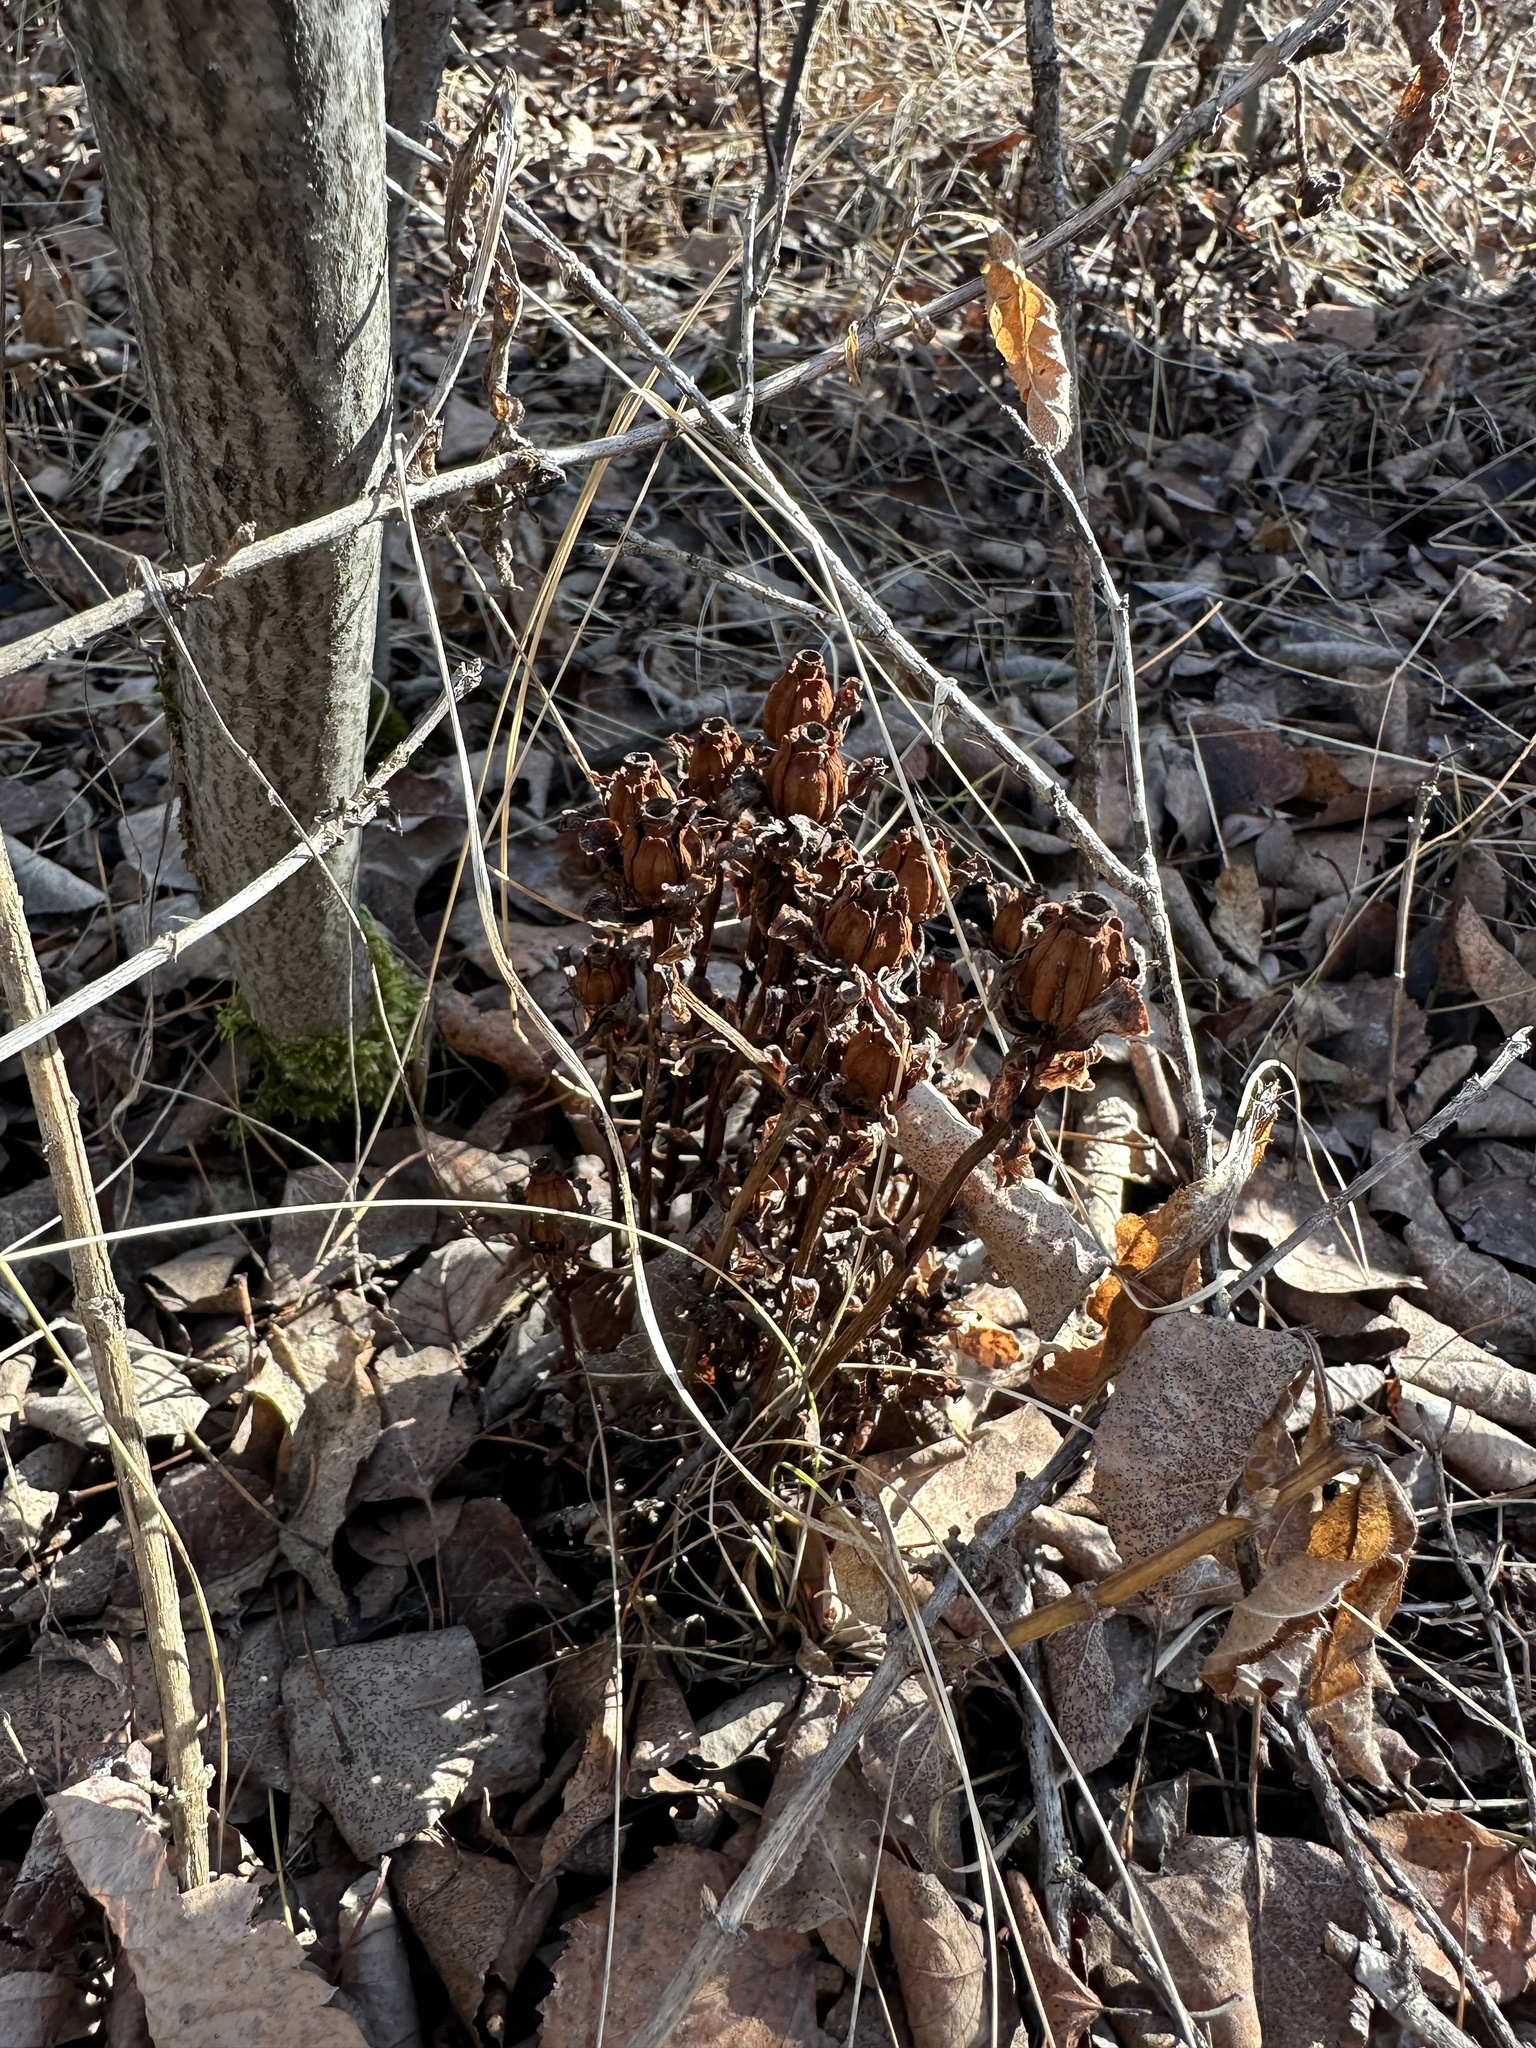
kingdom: Plantae
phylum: Tracheophyta
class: Magnoliopsida
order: Ericales
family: Ericaceae
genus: Monotropa
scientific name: Monotropa uniflora
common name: Convulsion root
